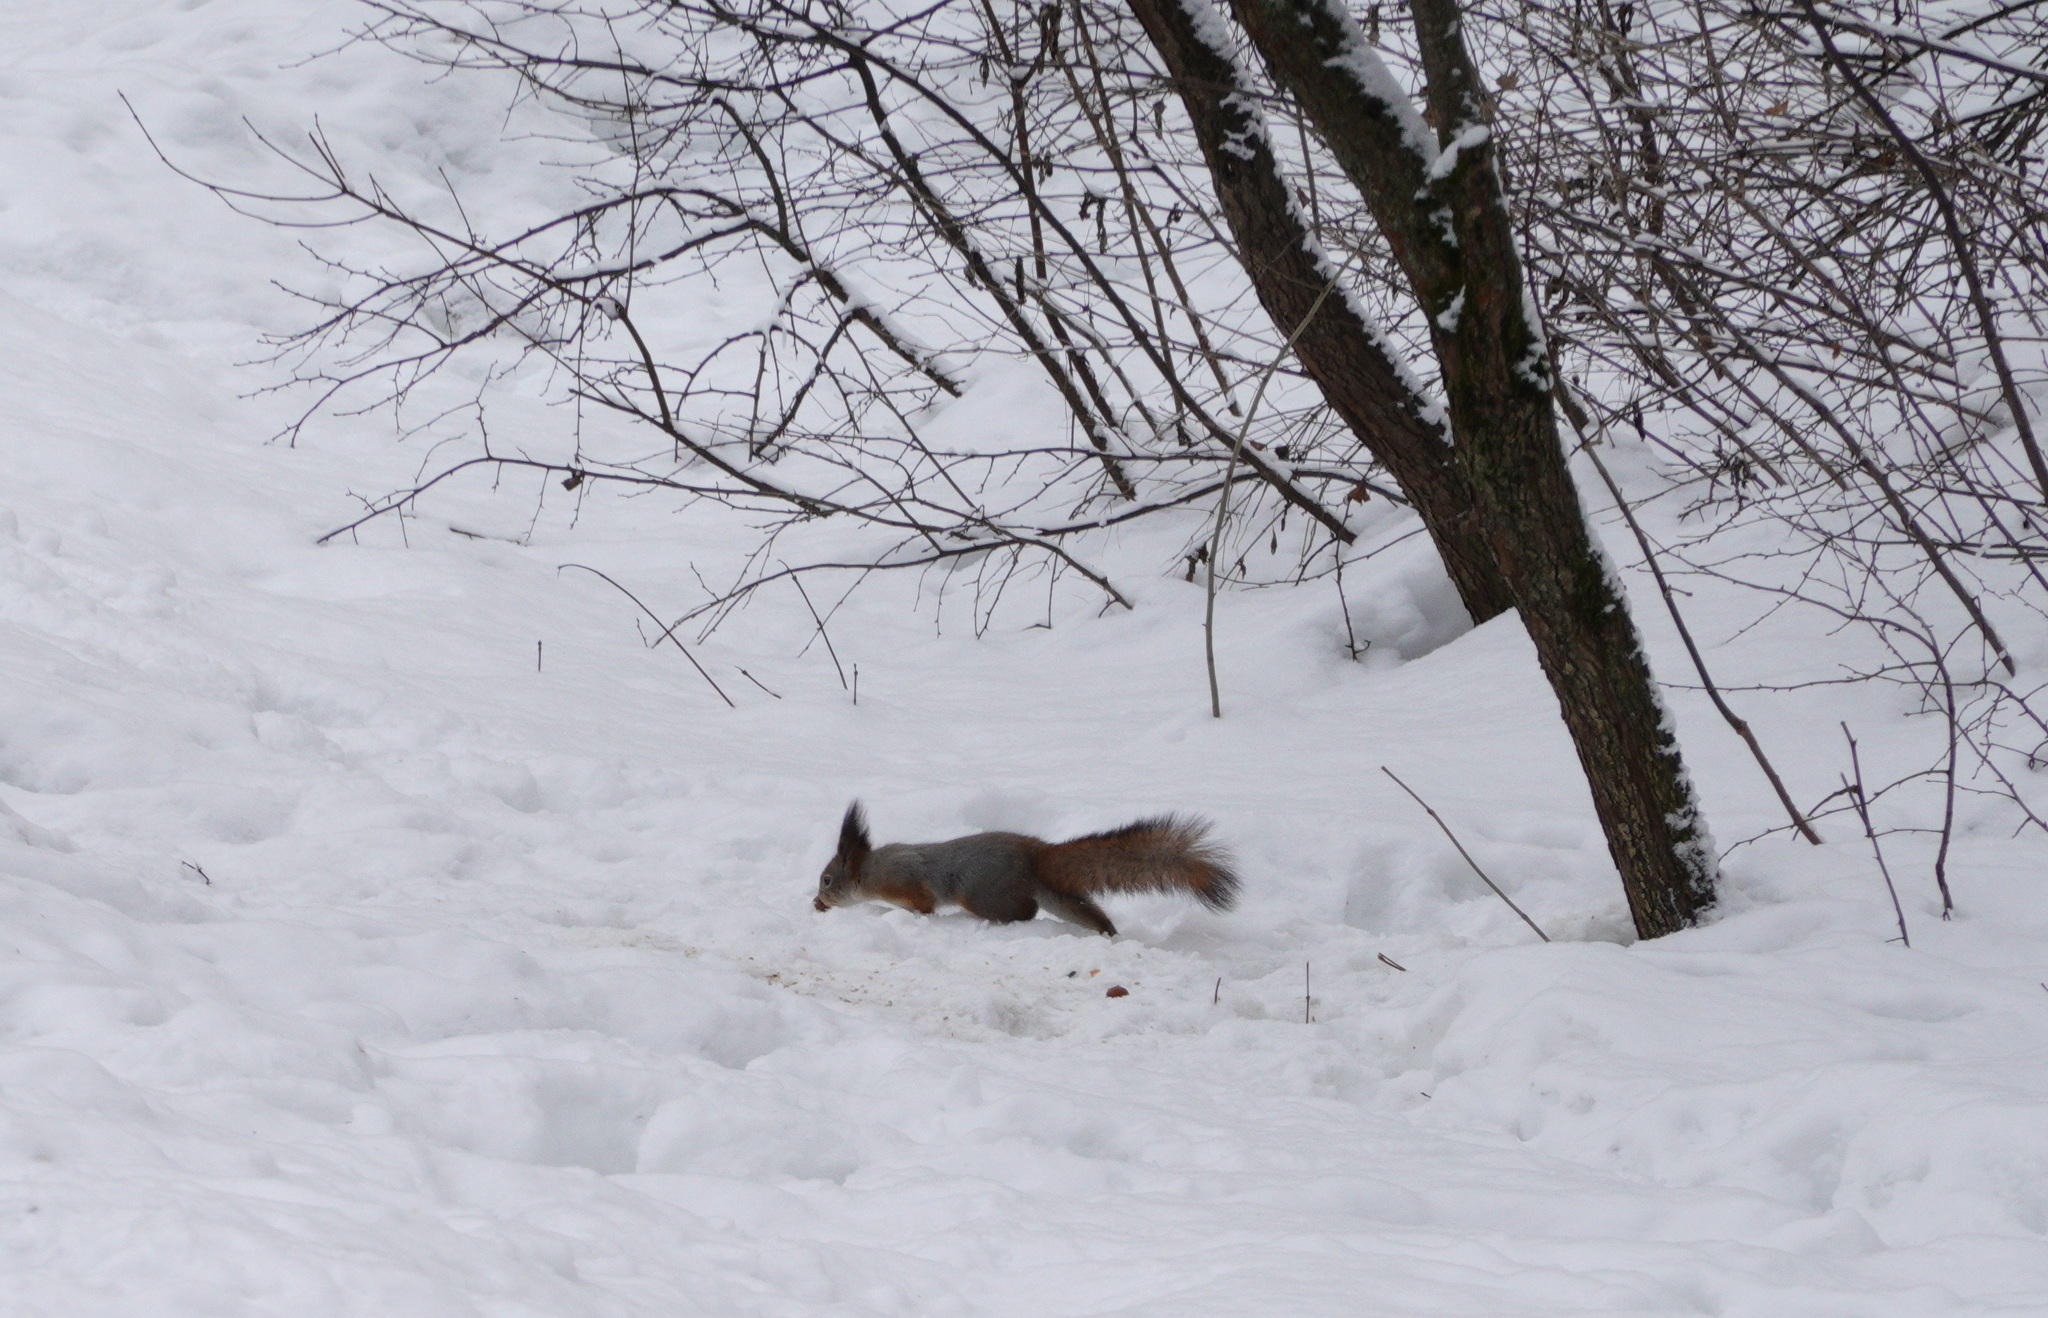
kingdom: Animalia
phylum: Chordata
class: Mammalia
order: Rodentia
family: Sciuridae
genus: Sciurus
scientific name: Sciurus vulgaris
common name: Eurasian red squirrel
